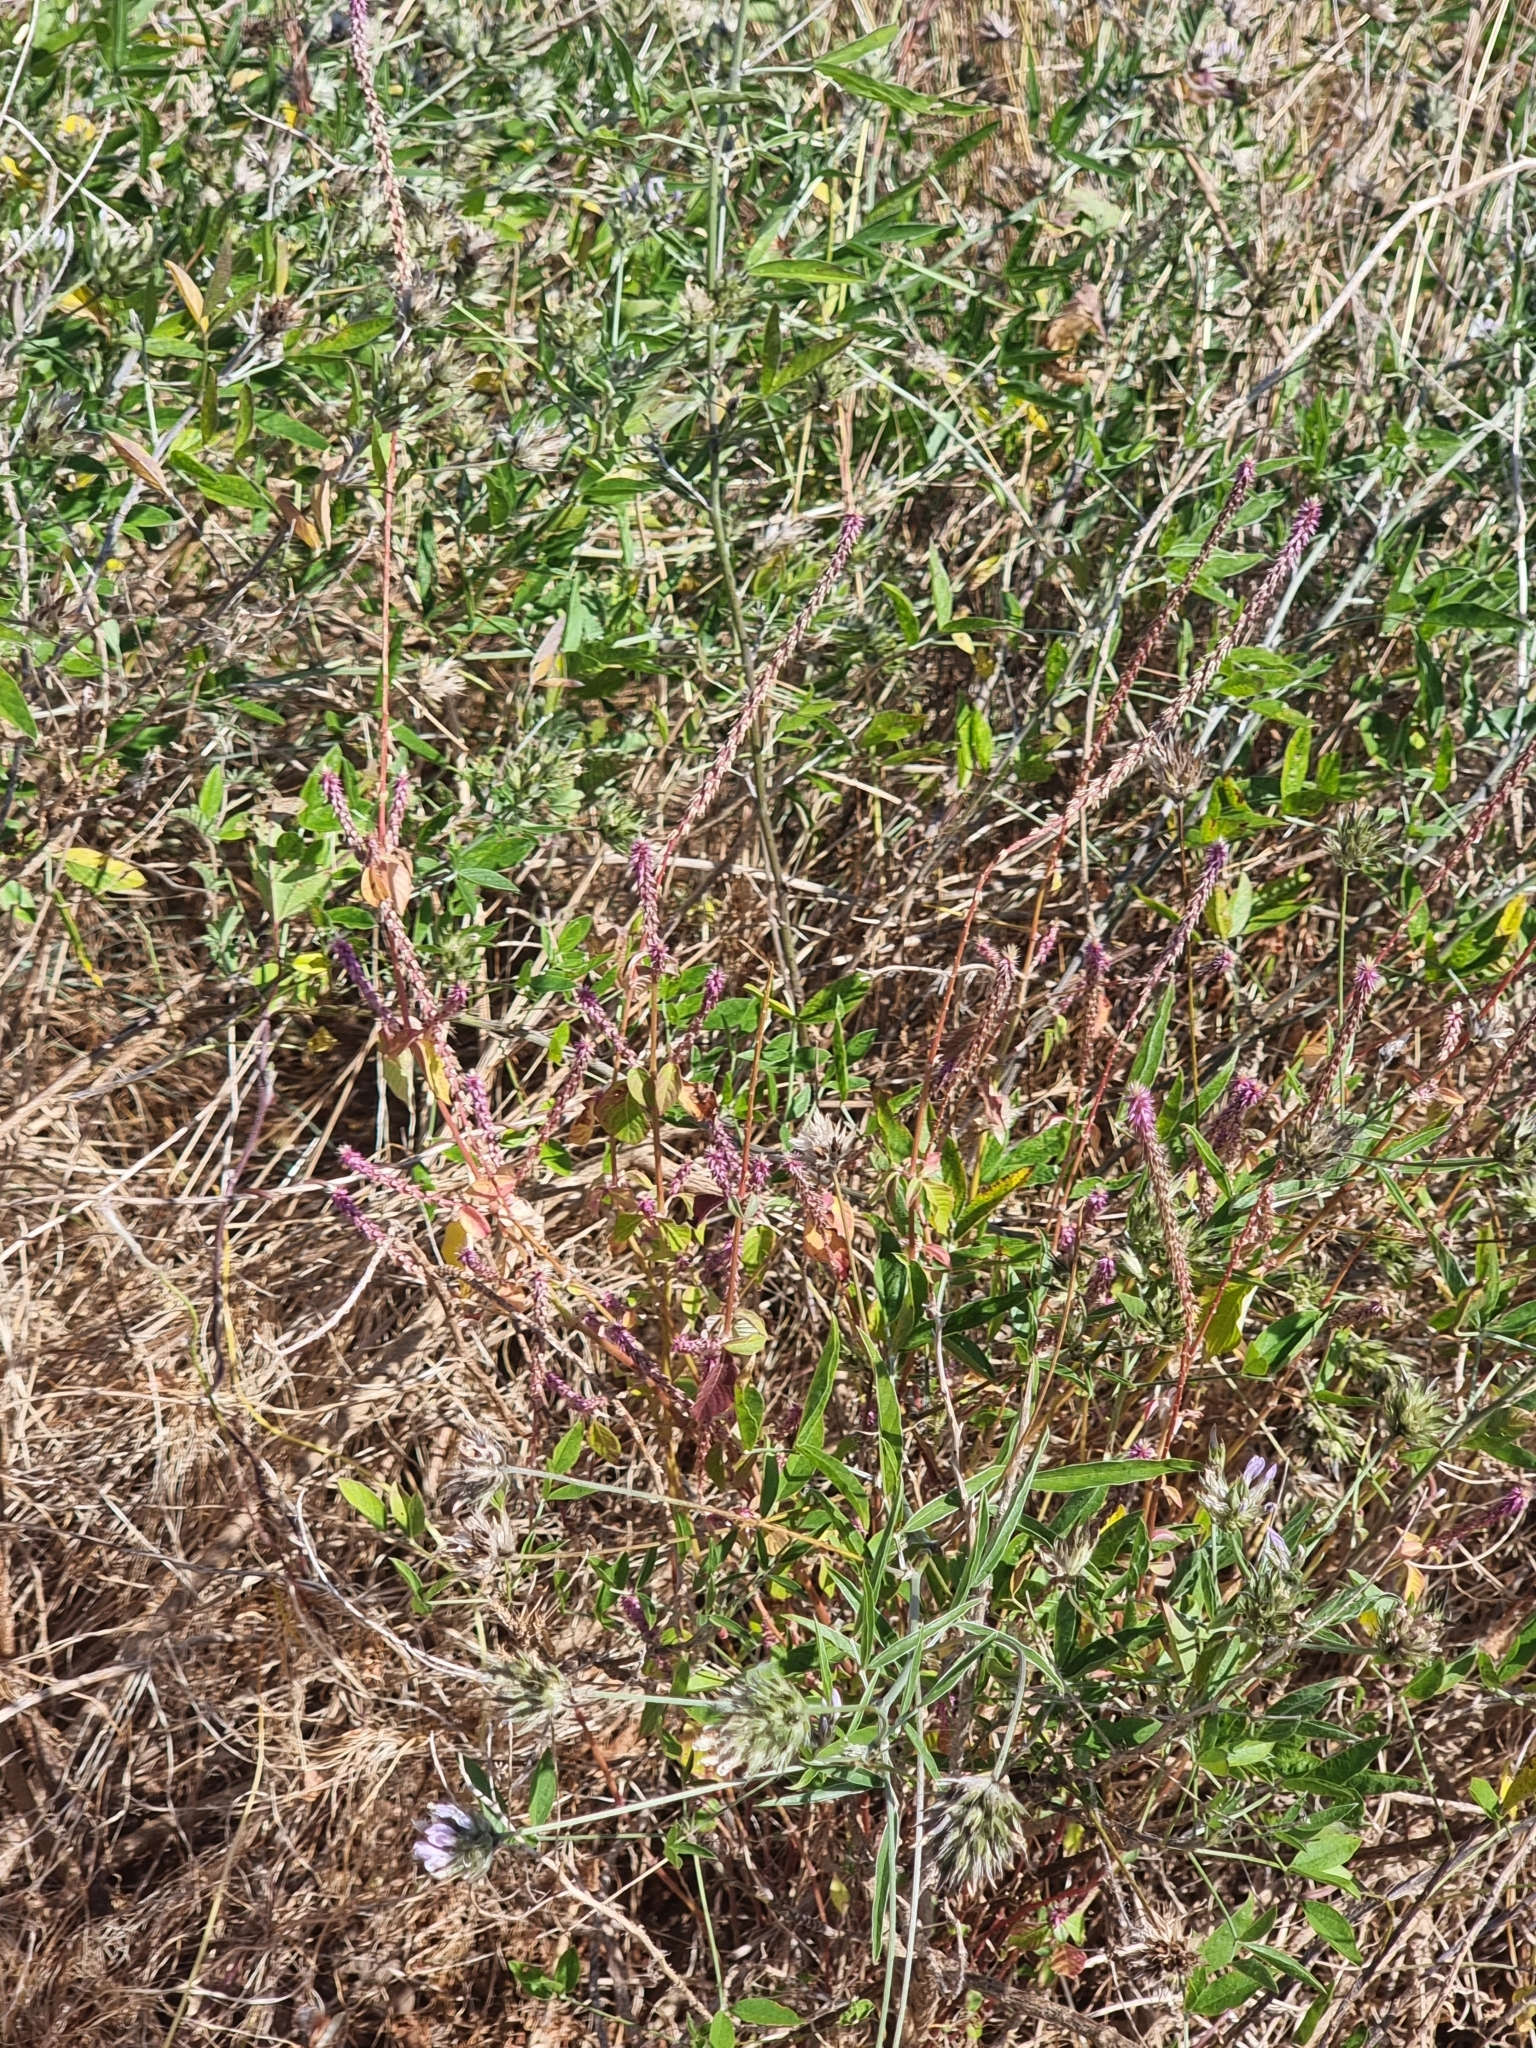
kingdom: Plantae
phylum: Tracheophyta
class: Magnoliopsida
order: Caryophyllales
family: Amaranthaceae
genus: Achyranthes
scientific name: Achyranthes aspera
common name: Devil's horsewhip
